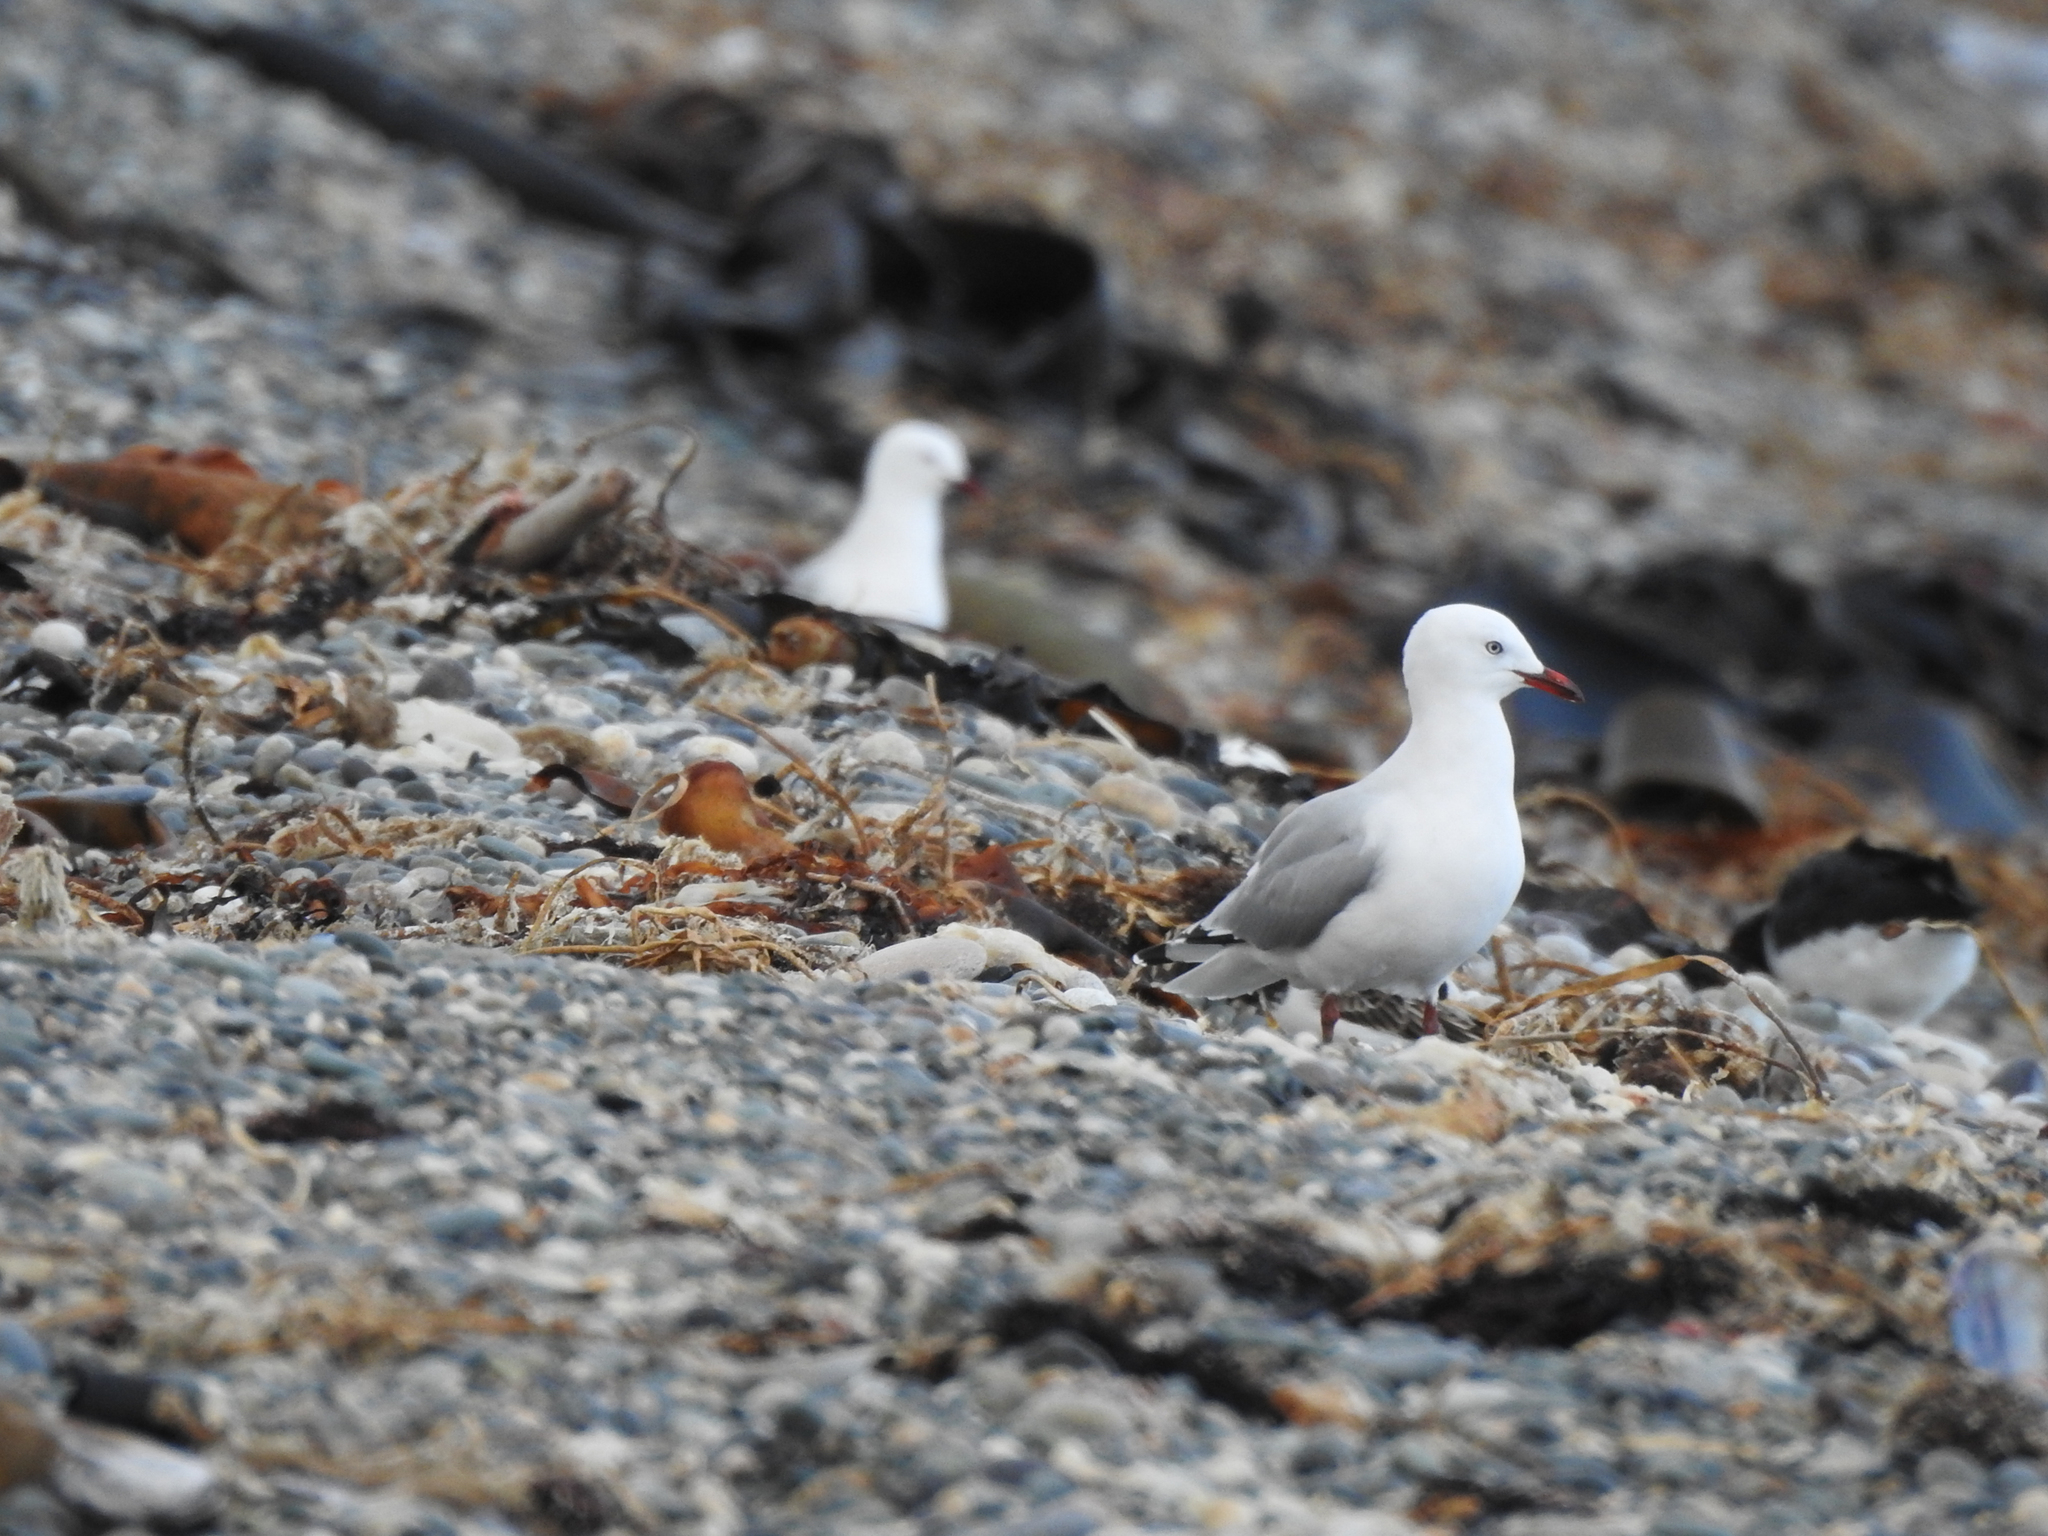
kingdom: Animalia
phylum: Chordata
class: Aves
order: Charadriiformes
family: Laridae
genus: Chroicocephalus
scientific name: Chroicocephalus novaehollandiae
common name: Silver gull
